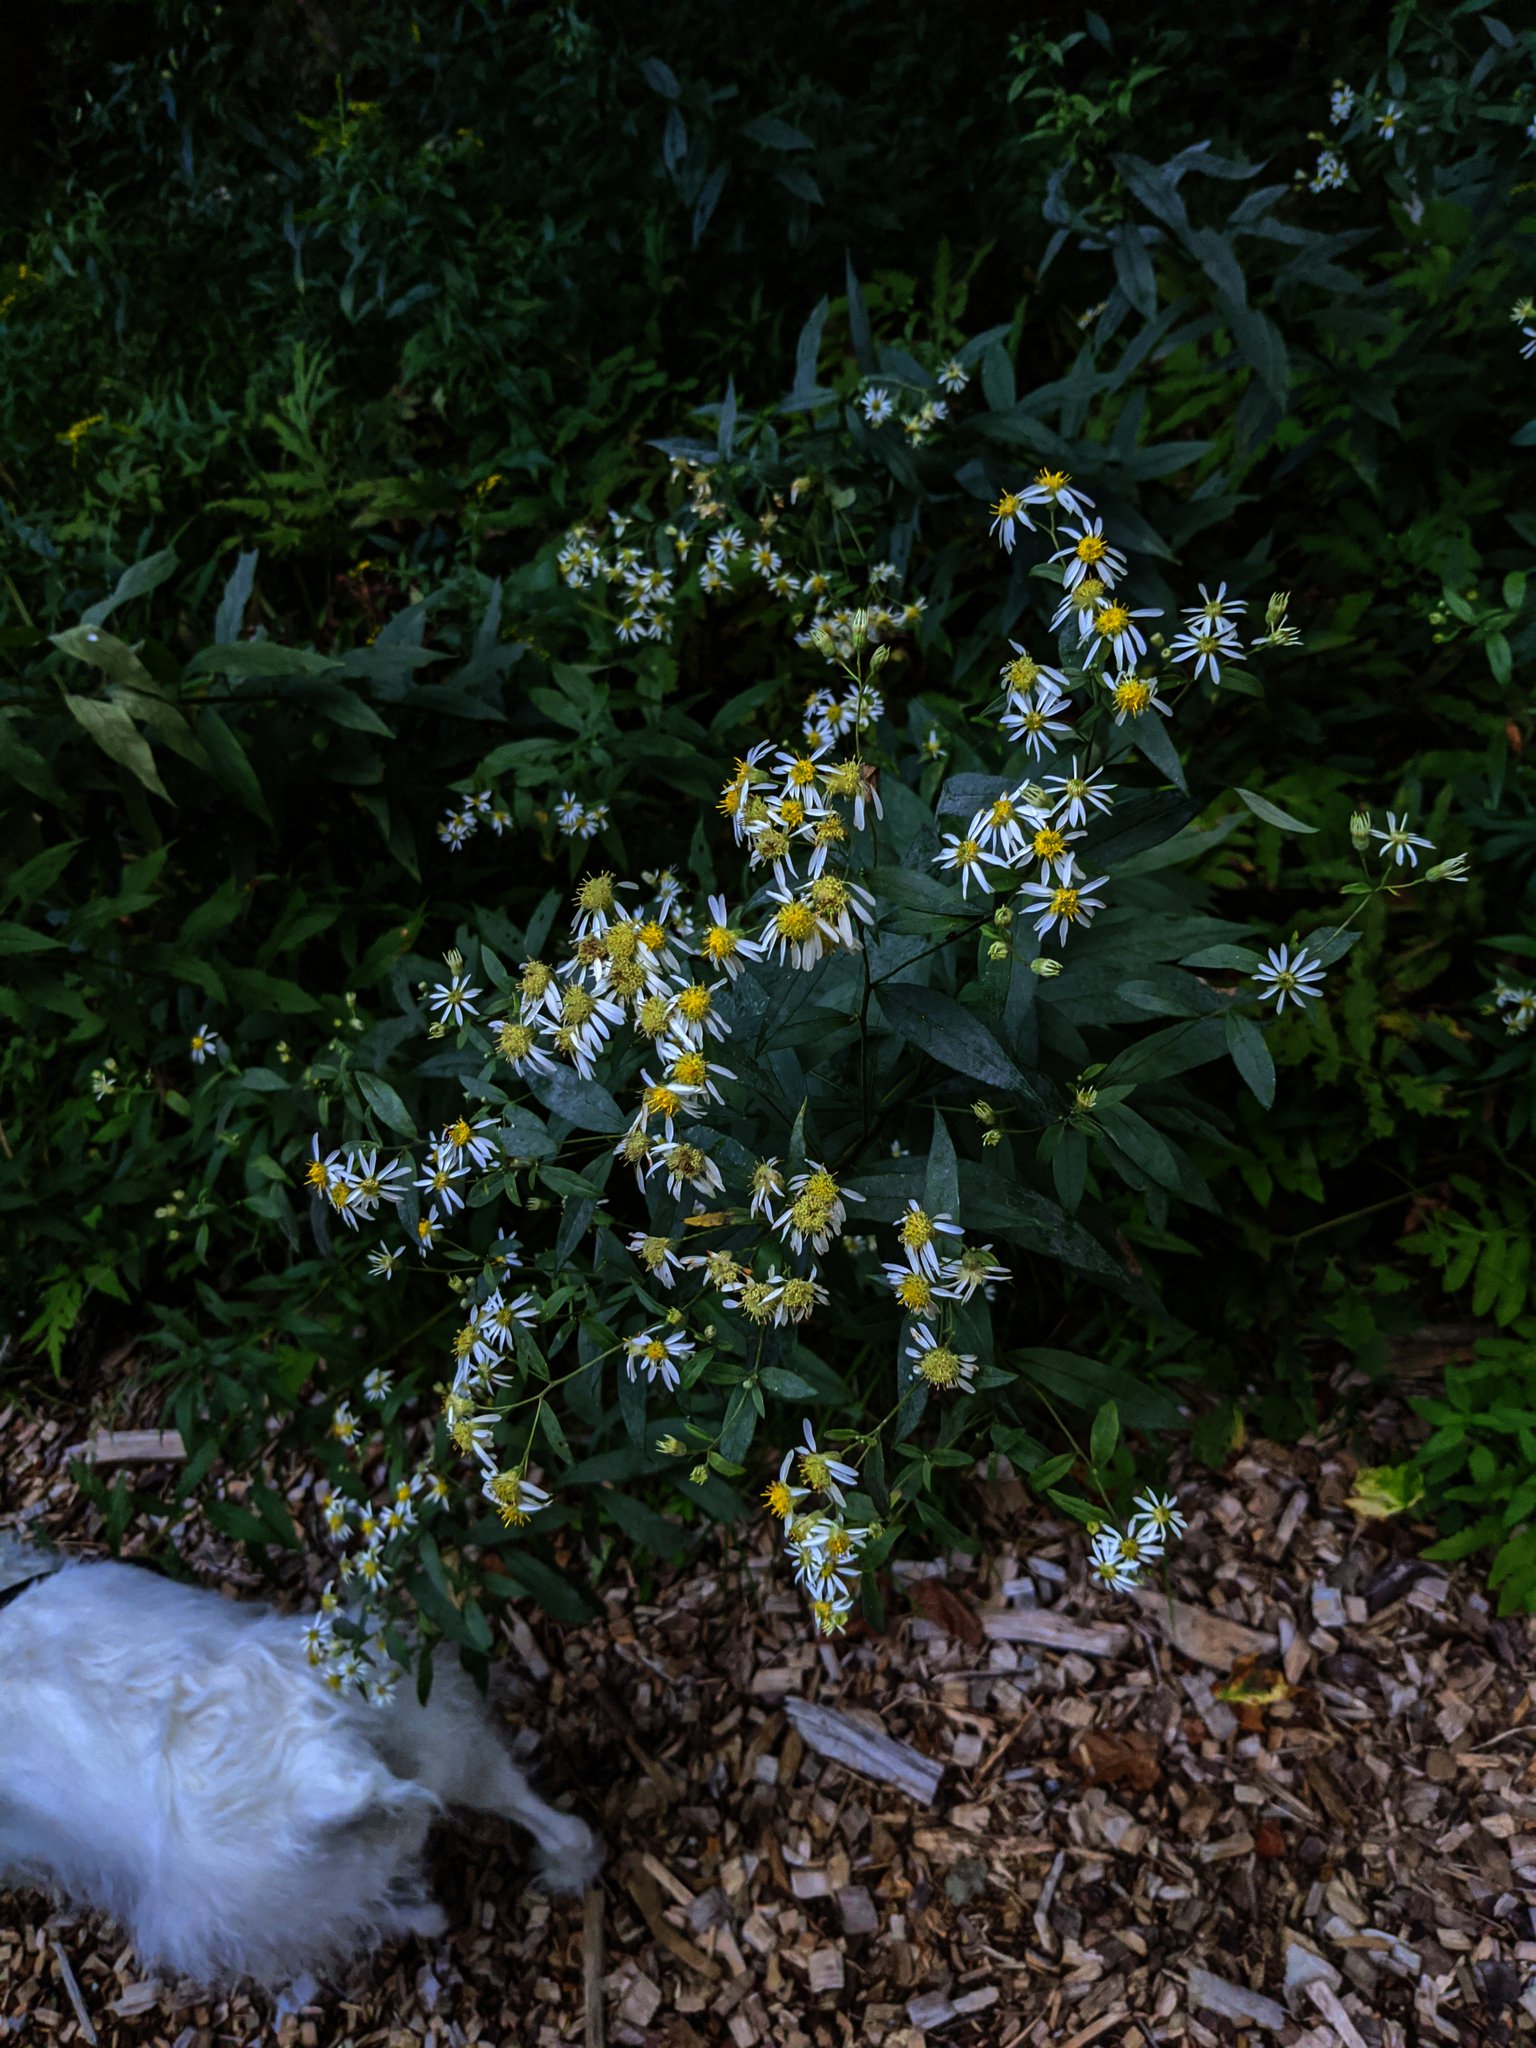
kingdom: Plantae
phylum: Tracheophyta
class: Magnoliopsida
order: Asterales
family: Asteraceae
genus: Doellingeria
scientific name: Doellingeria umbellata
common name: Flat-top white aster
